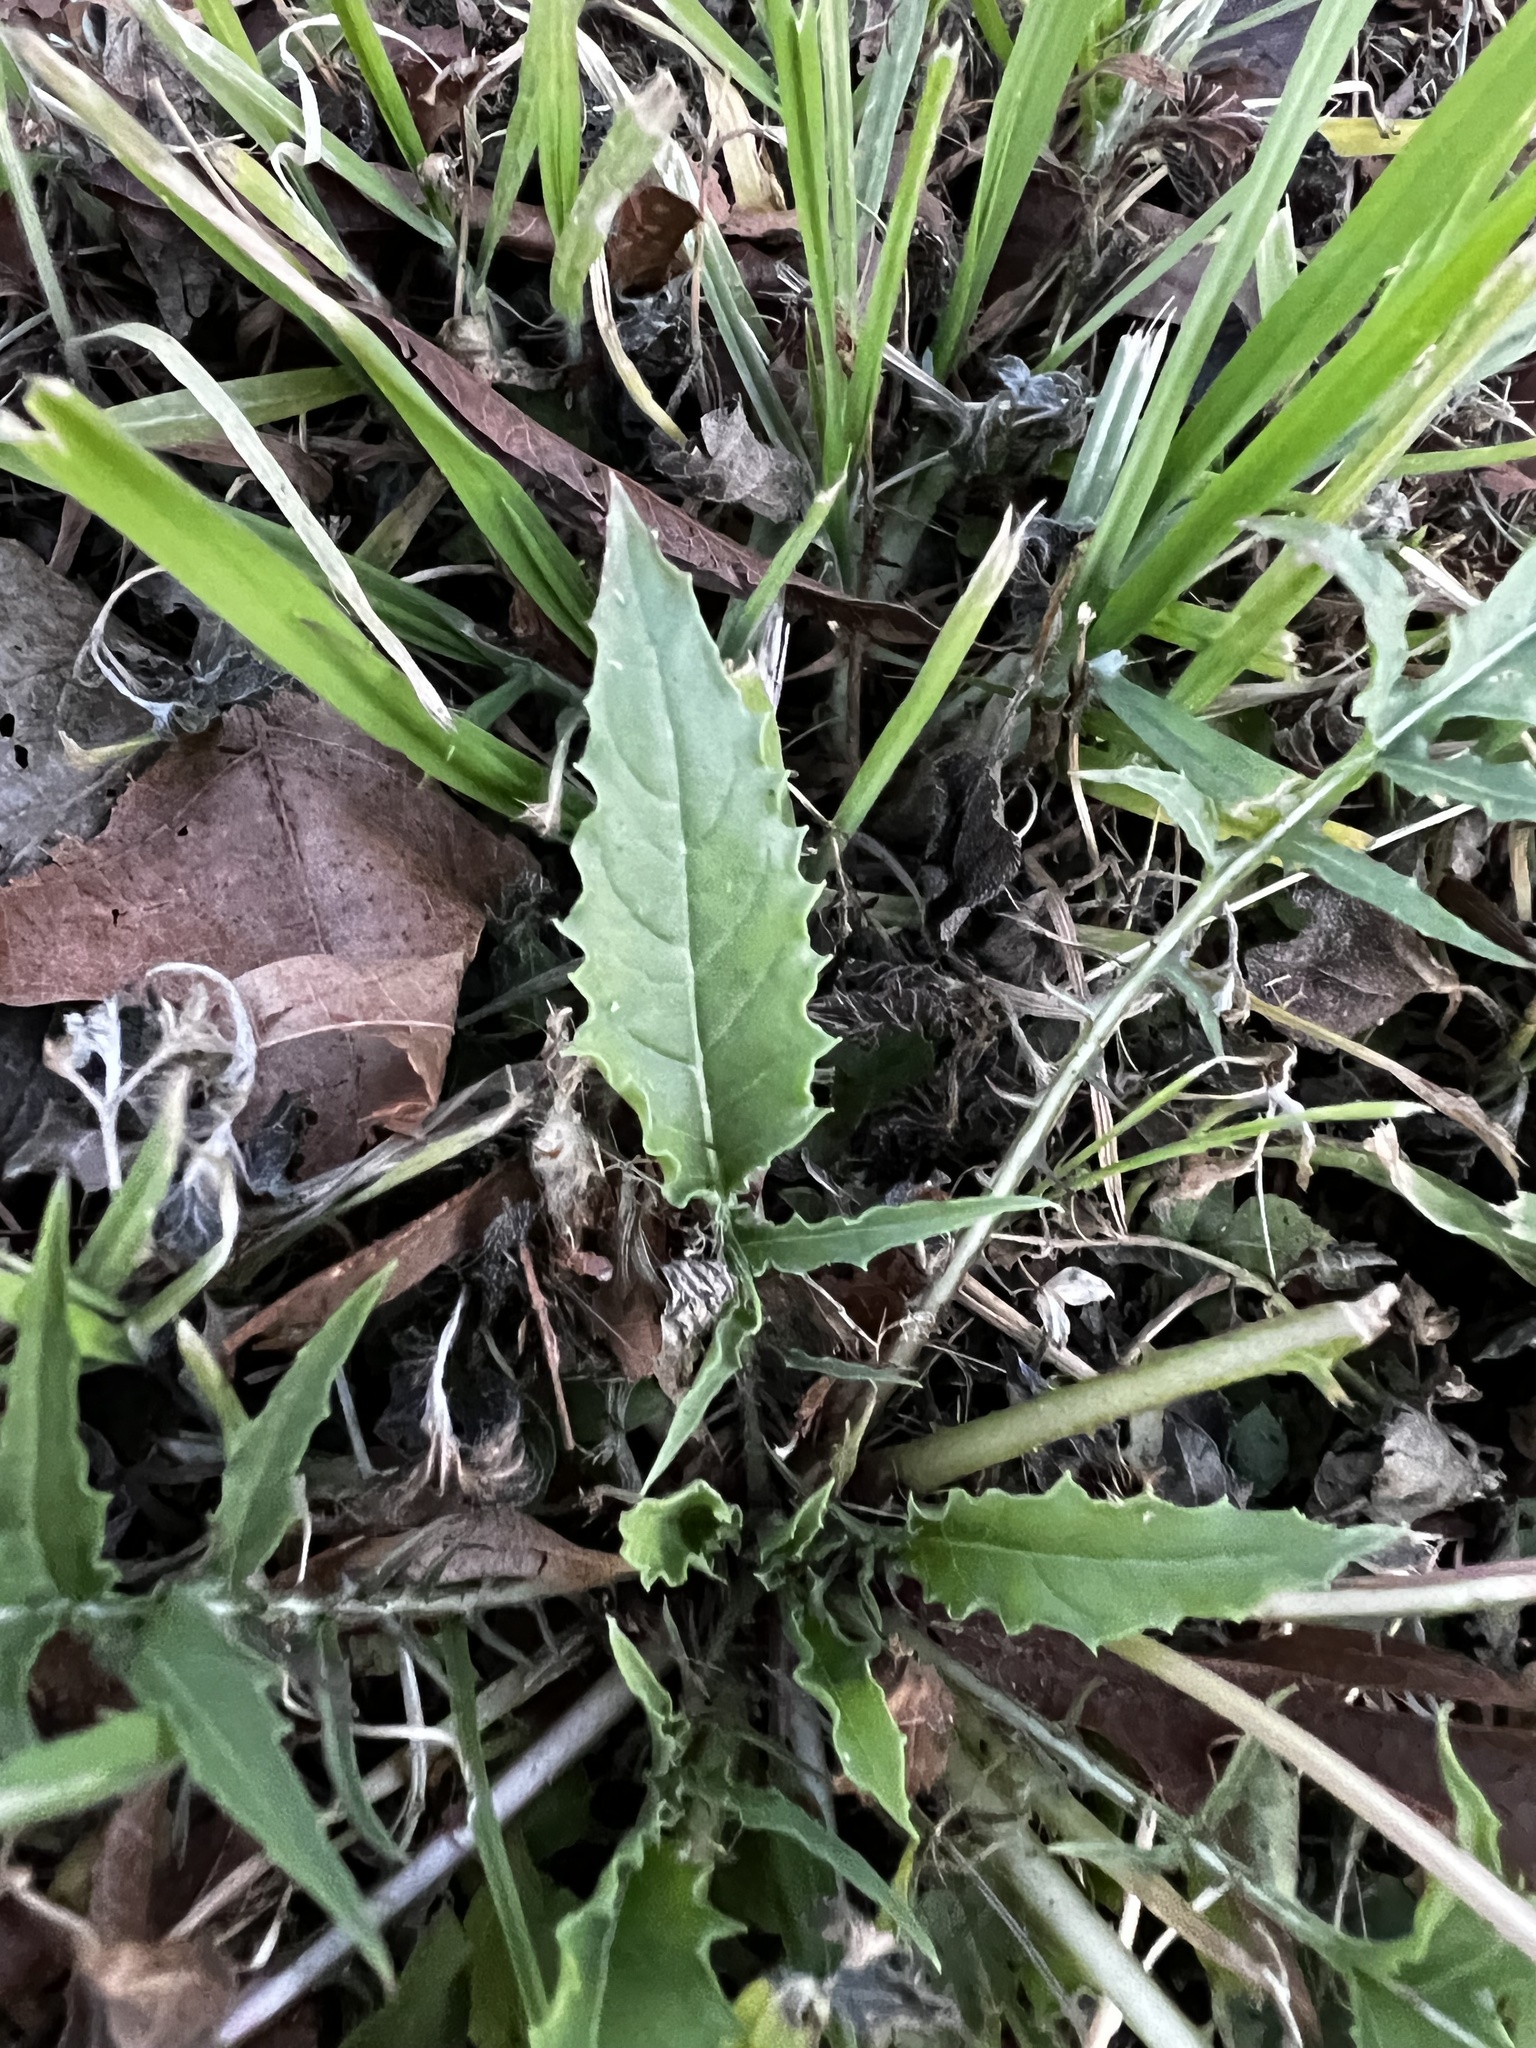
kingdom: Plantae
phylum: Tracheophyta
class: Magnoliopsida
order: Myrtales
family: Onagraceae
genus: Oenothera
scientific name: Oenothera triloba
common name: Sessile evening-primrose
